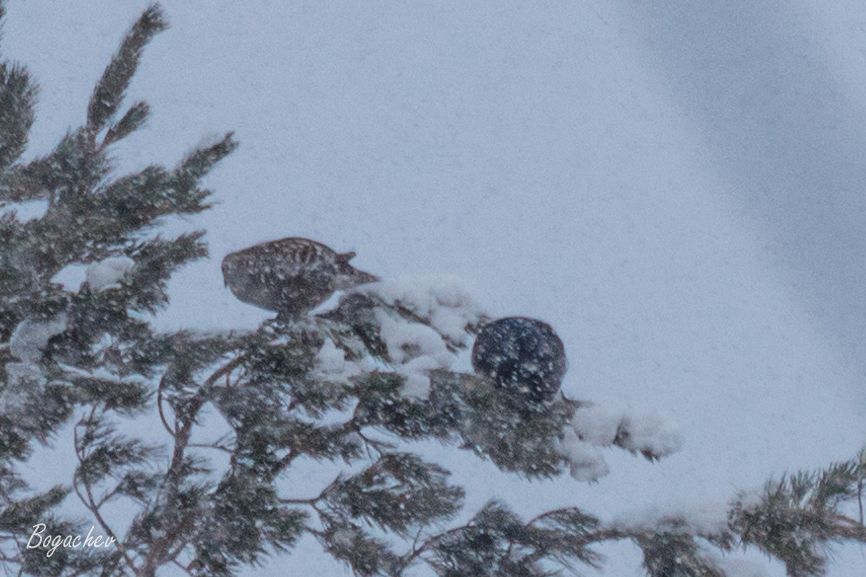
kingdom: Animalia
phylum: Chordata
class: Aves
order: Galliformes
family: Phasianidae
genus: Lyrurus
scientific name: Lyrurus tetrix
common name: Black grouse
